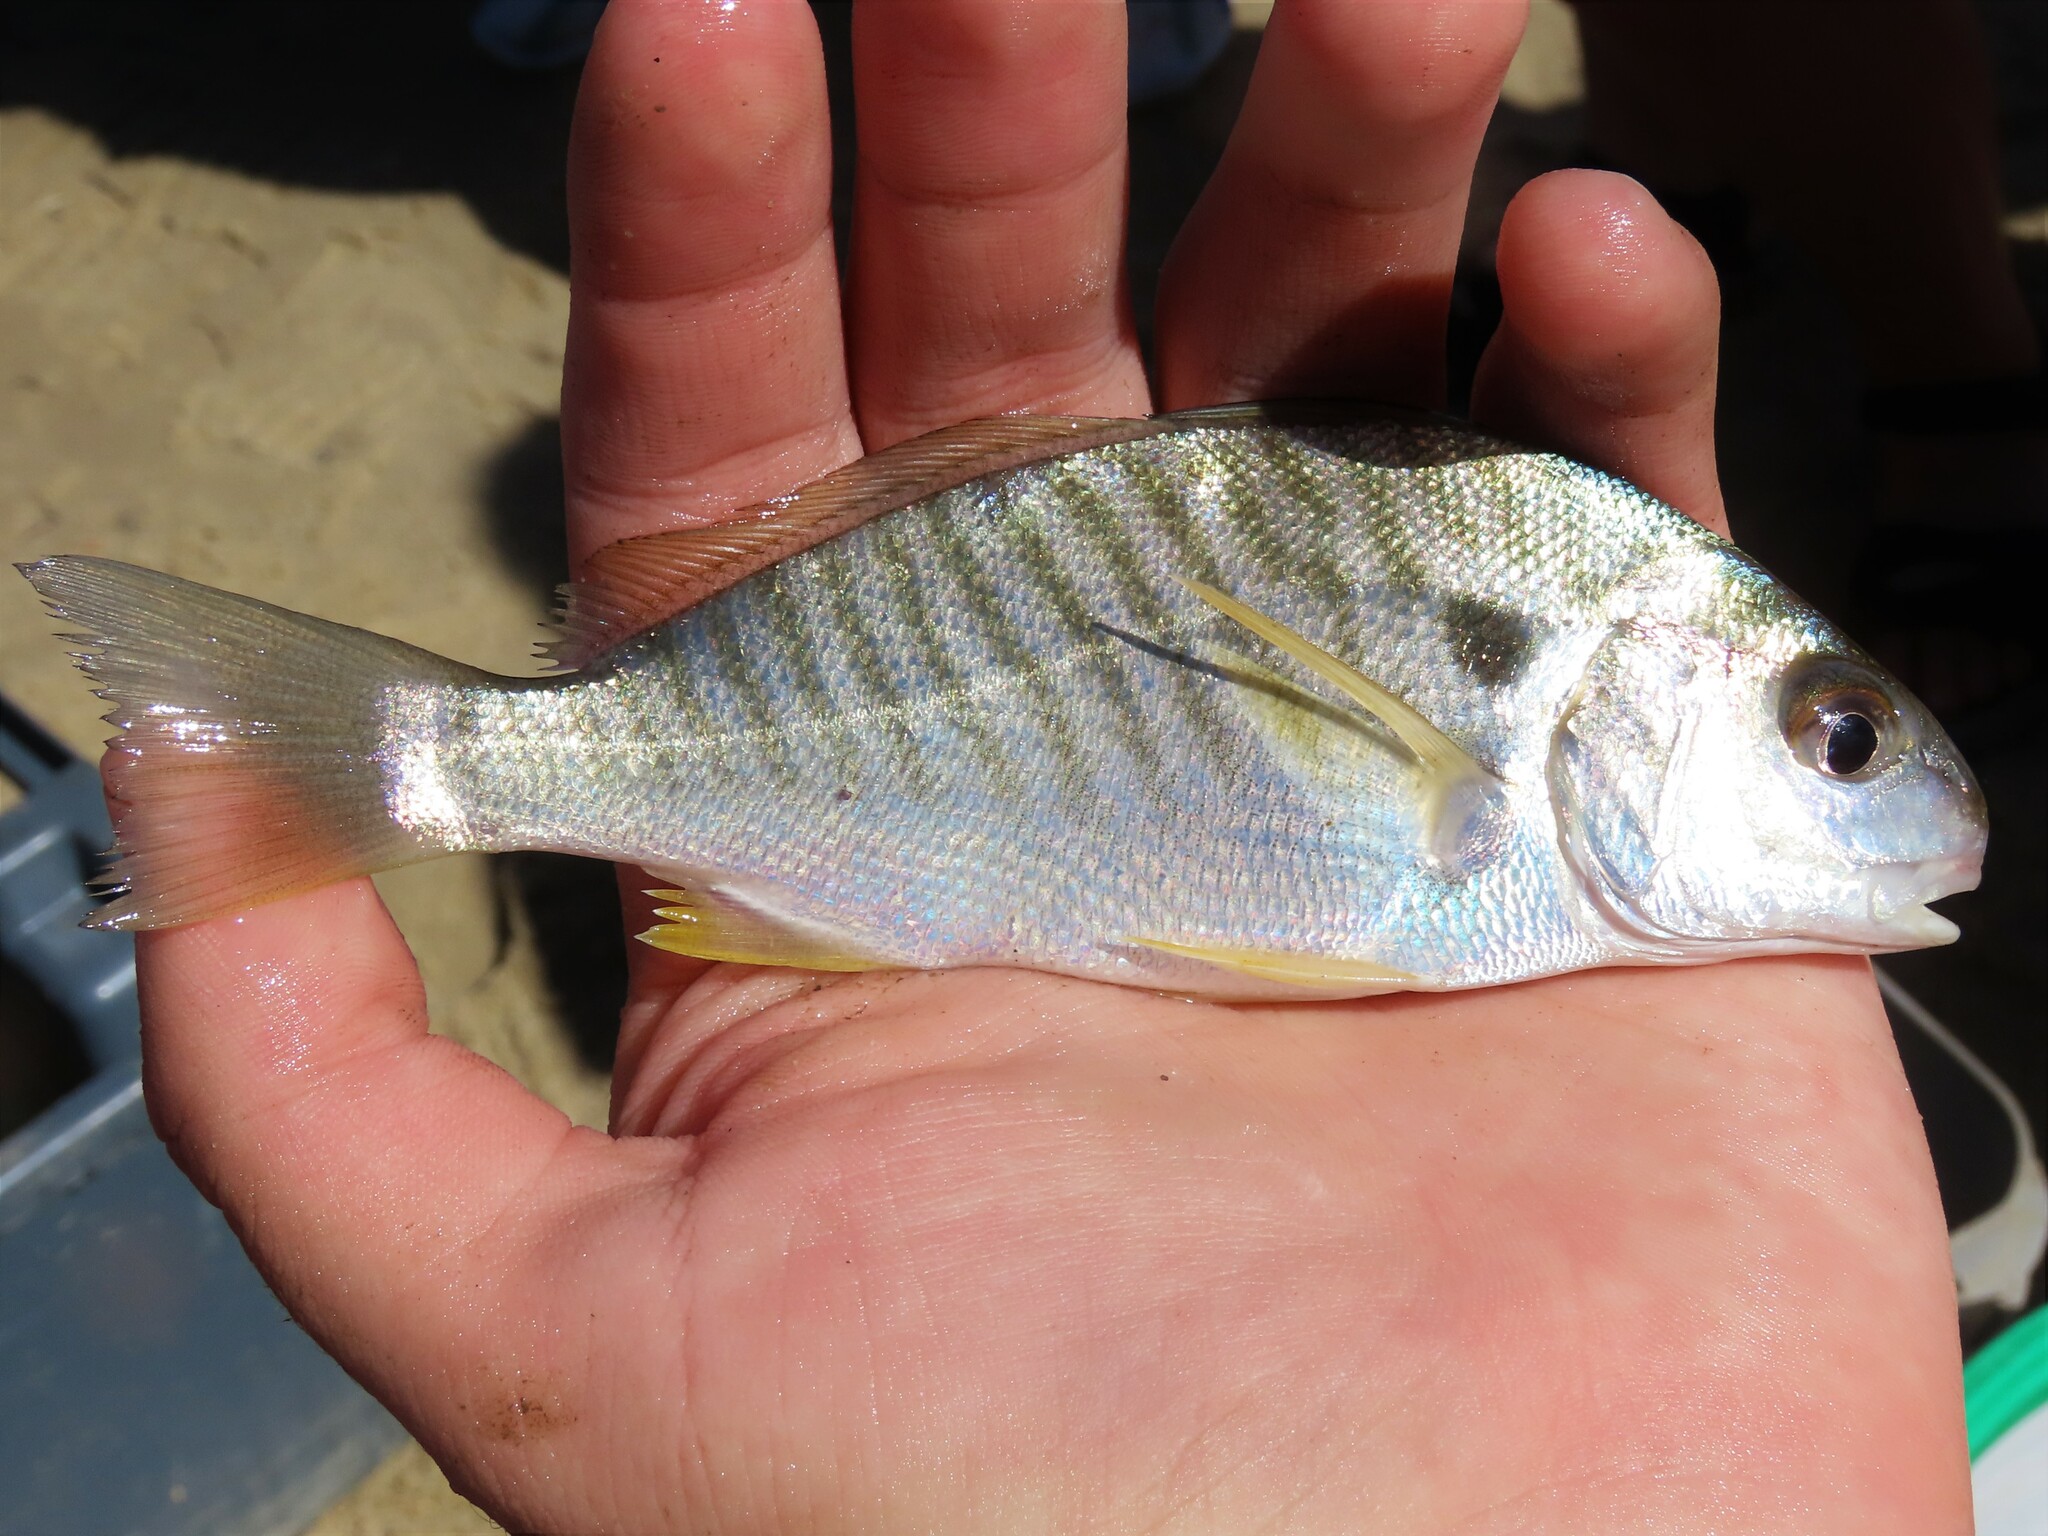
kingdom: Animalia
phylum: Chordata
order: Perciformes
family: Sciaenidae
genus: Leiostomus
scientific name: Leiostomus xanthurus
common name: Spot
